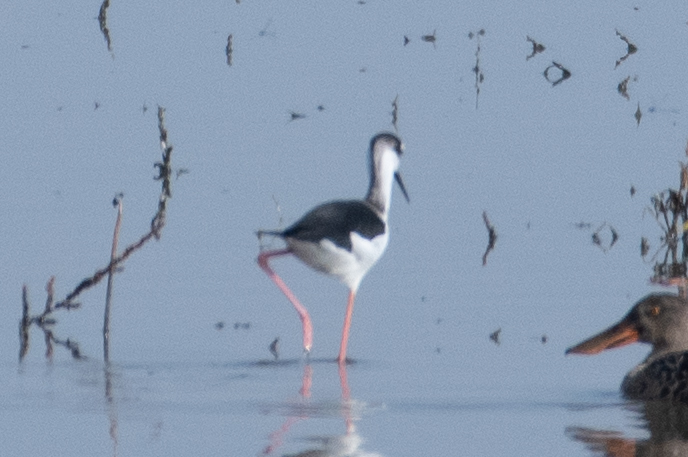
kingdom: Animalia
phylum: Chordata
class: Aves
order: Charadriiformes
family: Recurvirostridae
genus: Himantopus
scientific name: Himantopus mexicanus
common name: Black-necked stilt
